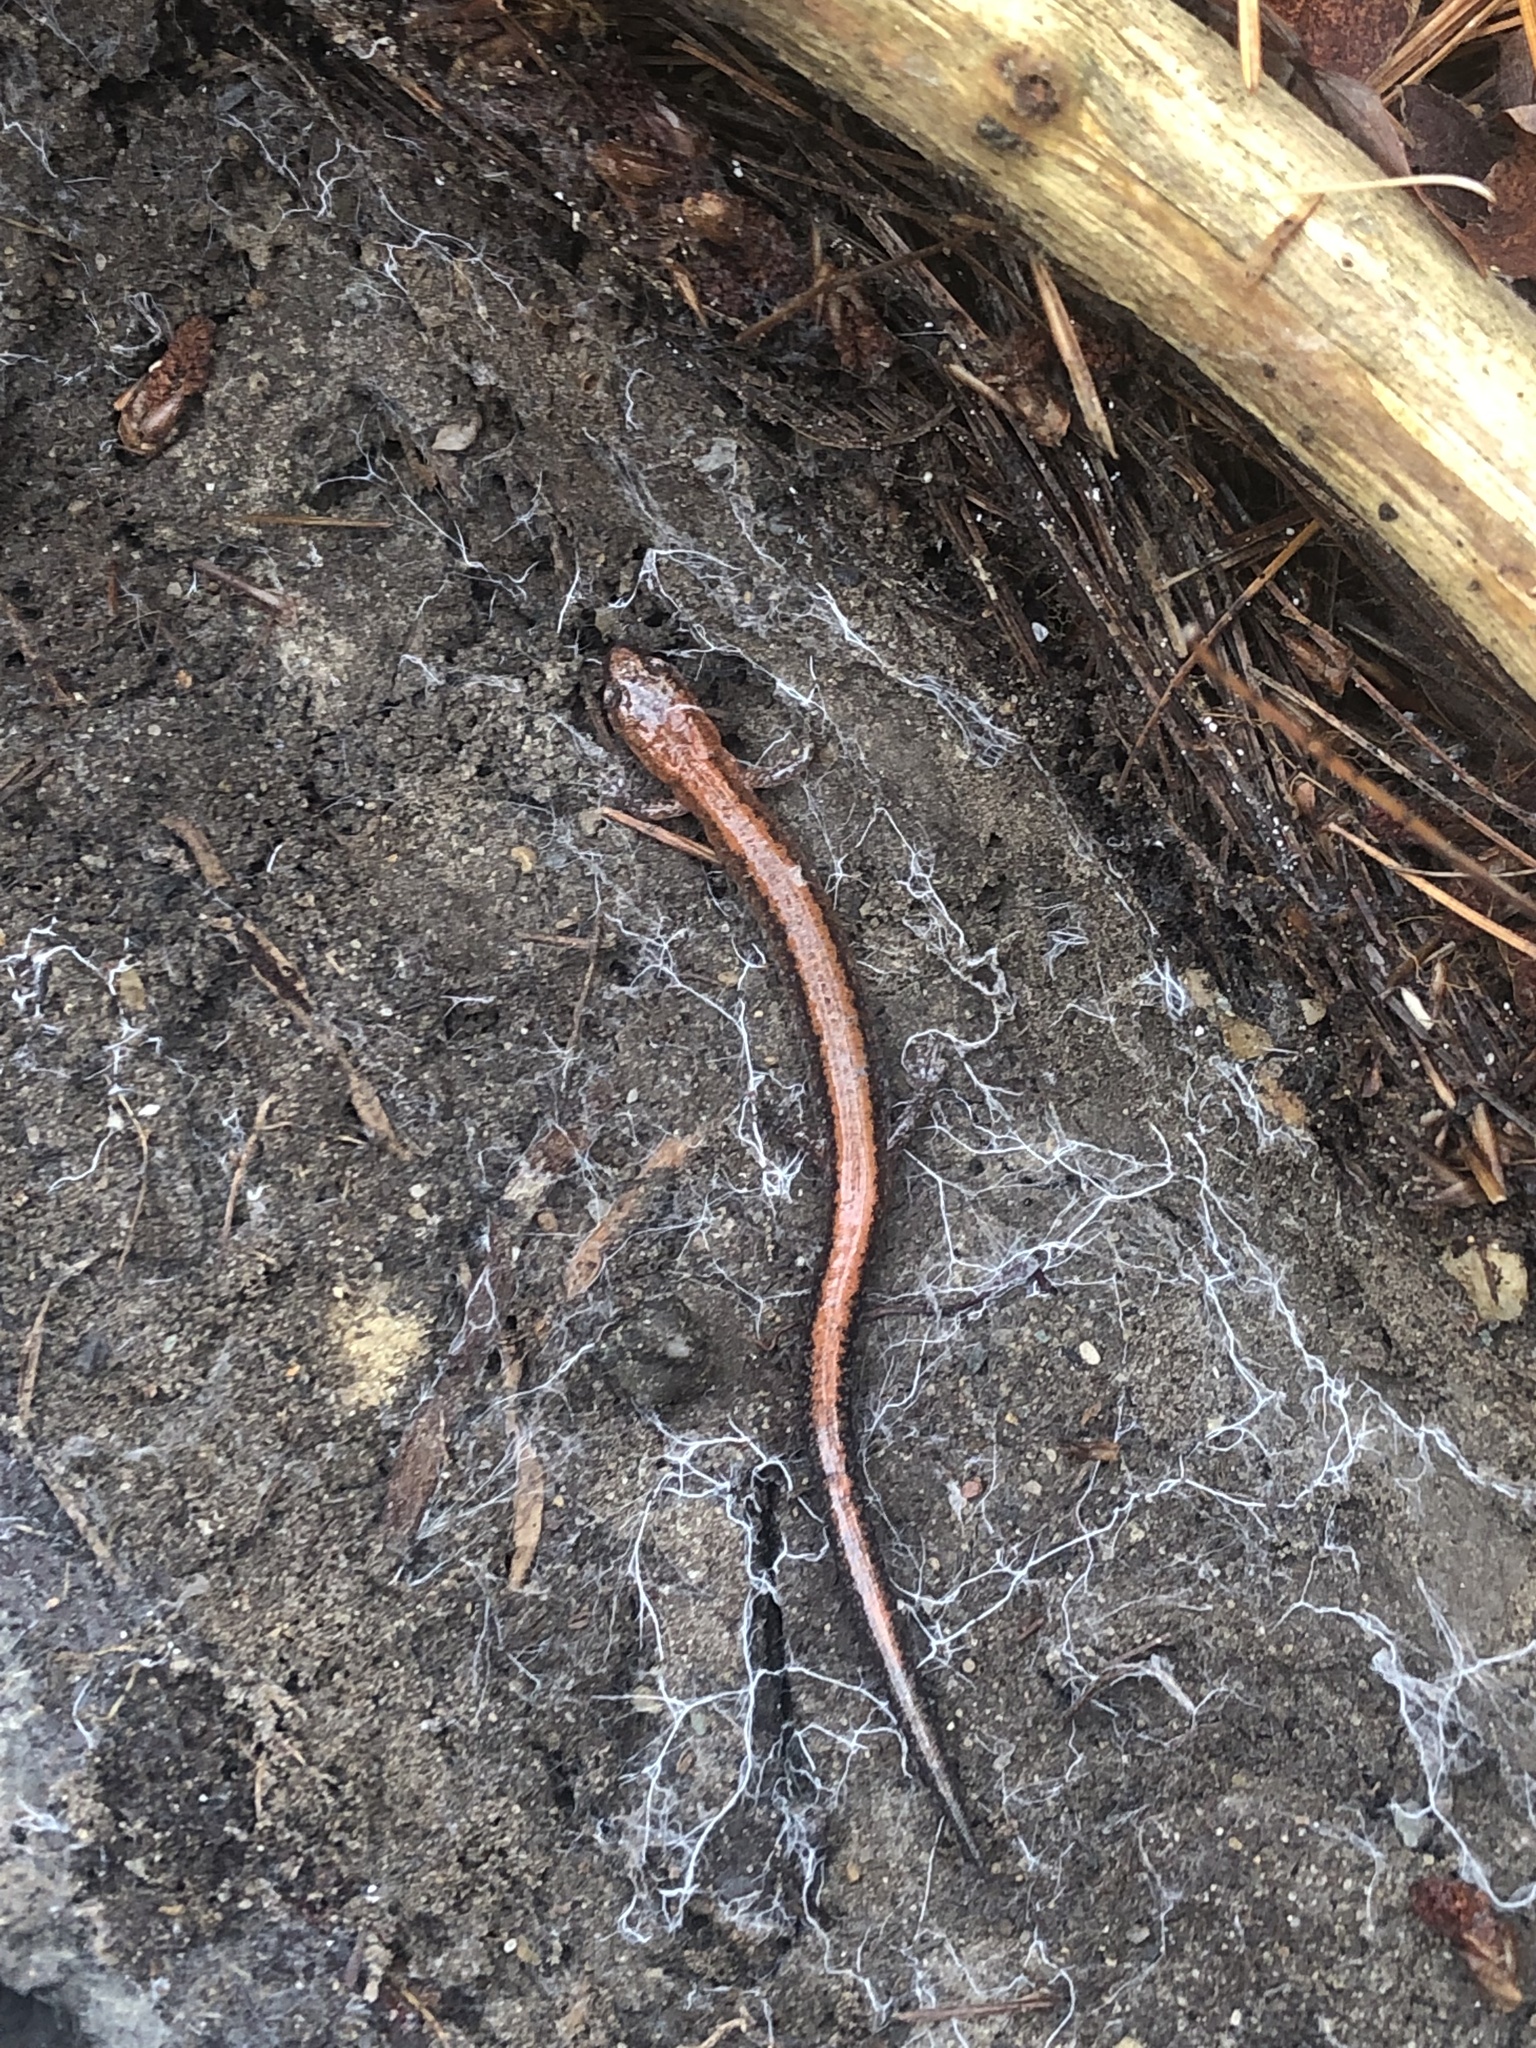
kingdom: Animalia
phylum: Chordata
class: Amphibia
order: Caudata
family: Plethodontidae
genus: Plethodon
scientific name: Plethodon cinereus
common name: Redback salamander
